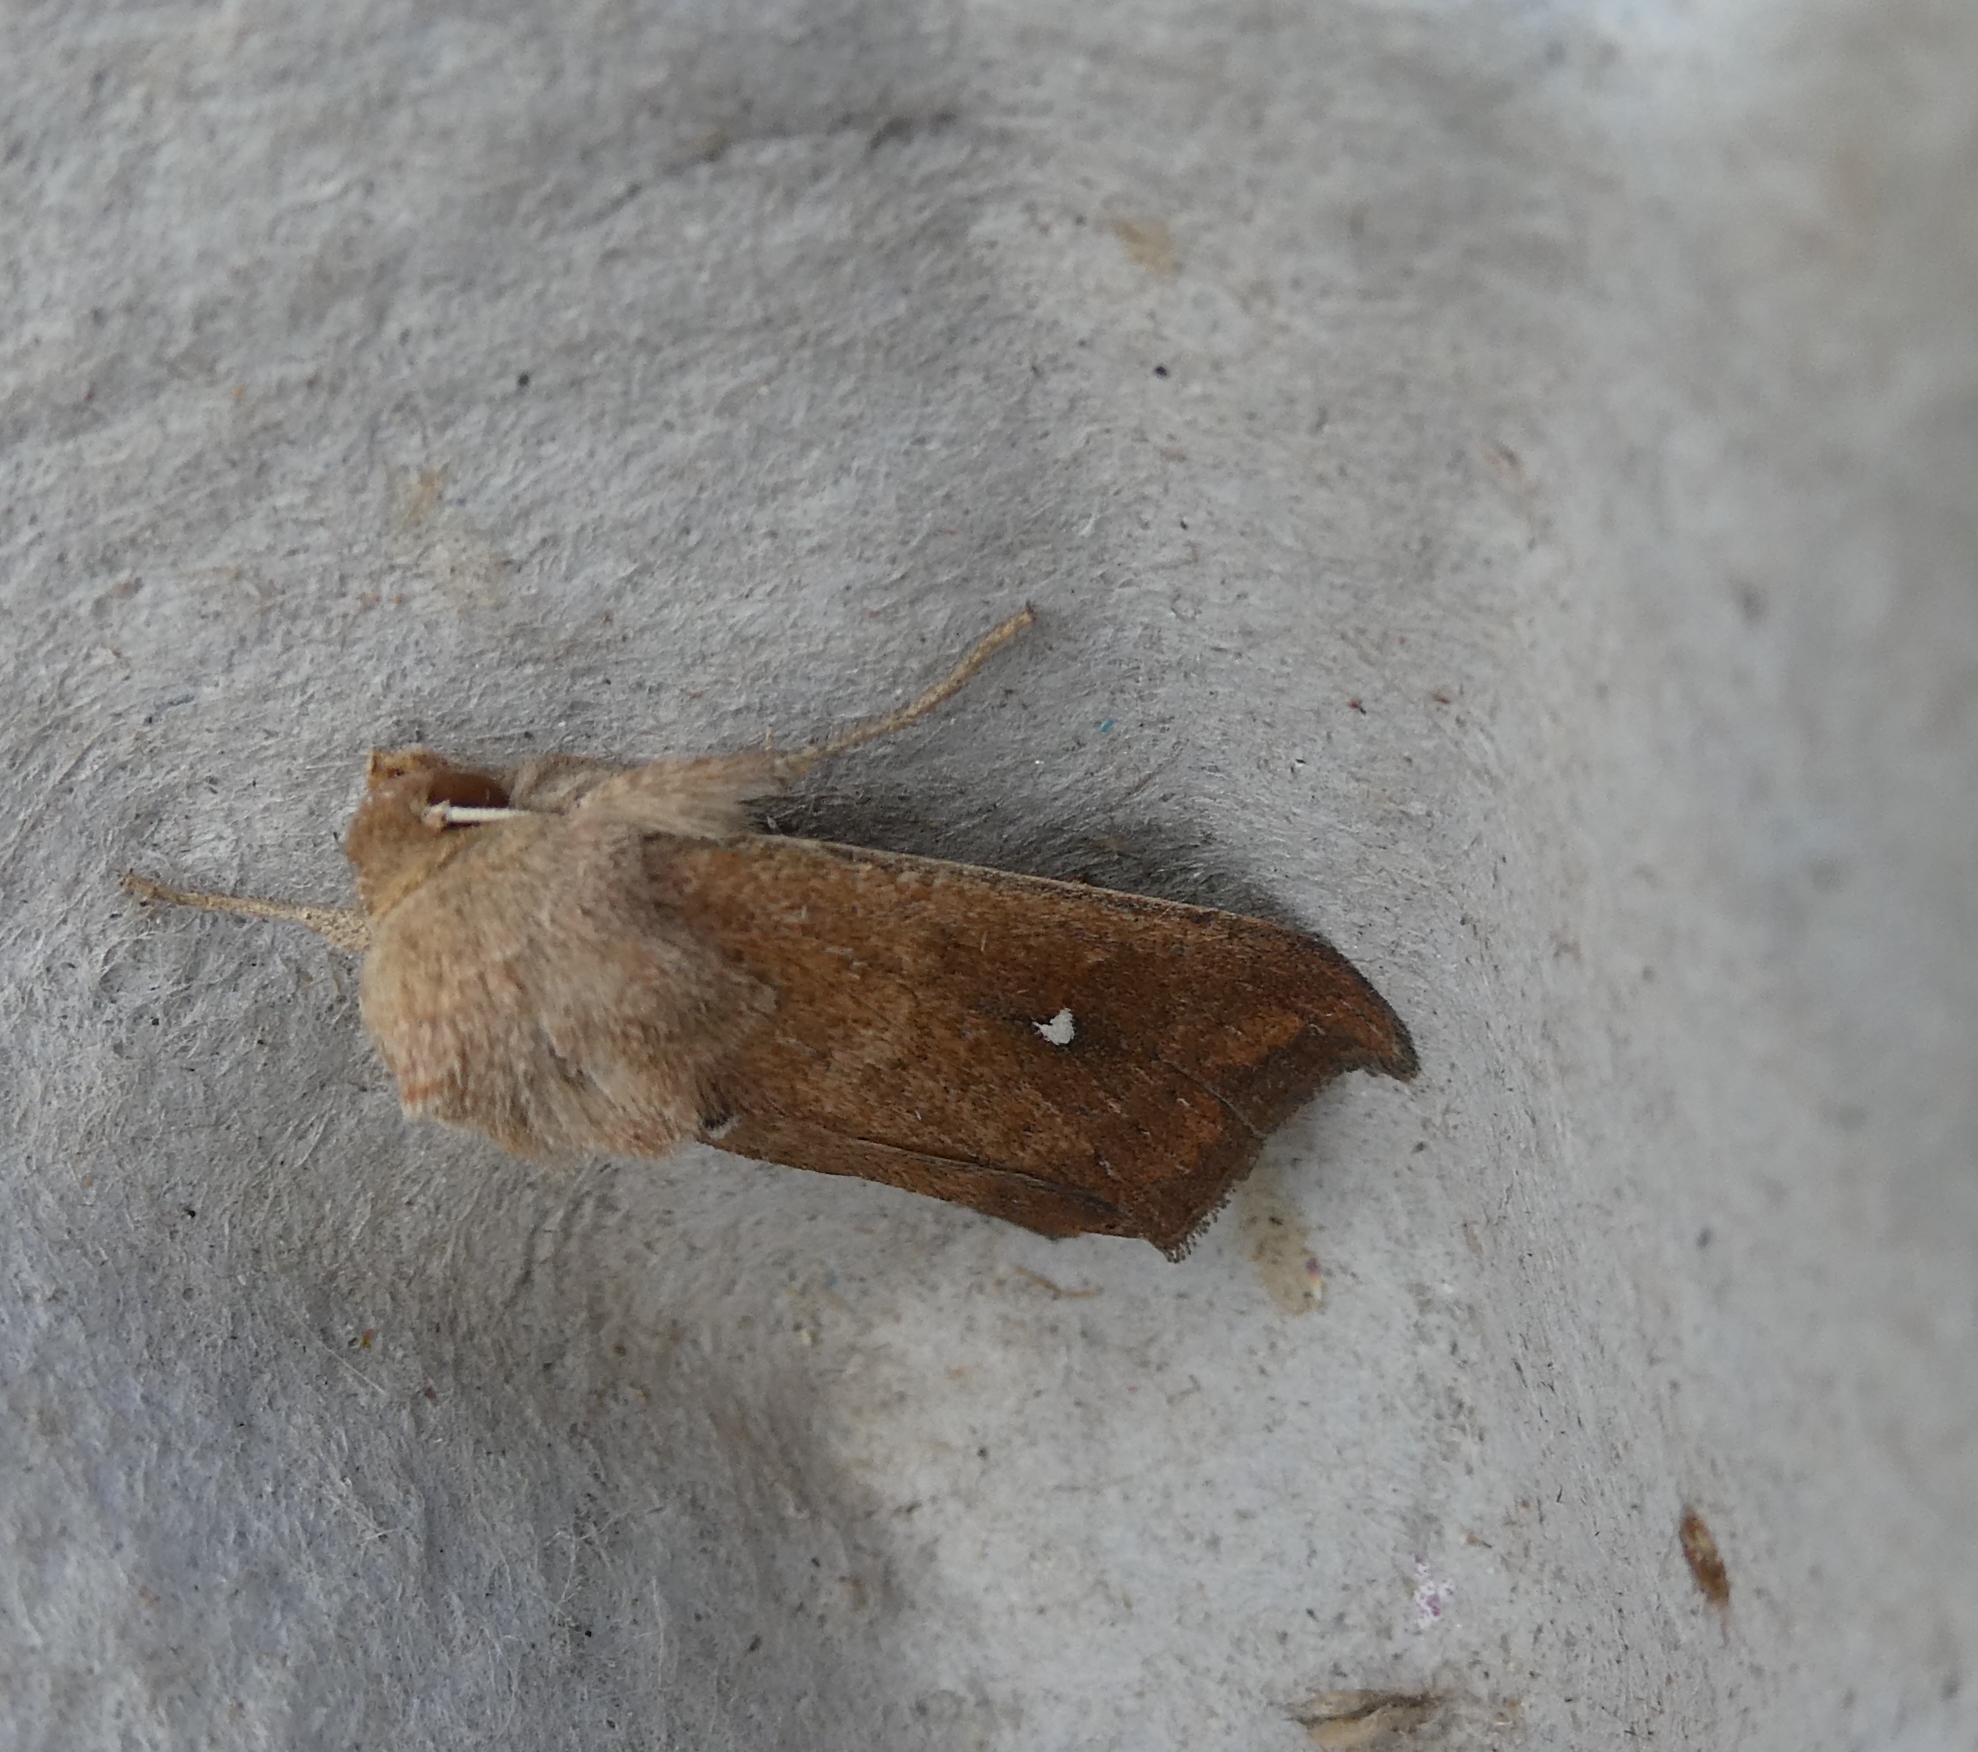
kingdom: Animalia
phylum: Arthropoda
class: Insecta
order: Lepidoptera
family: Noctuidae
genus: Mythimna
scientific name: Mythimna albipuncta
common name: White-point
